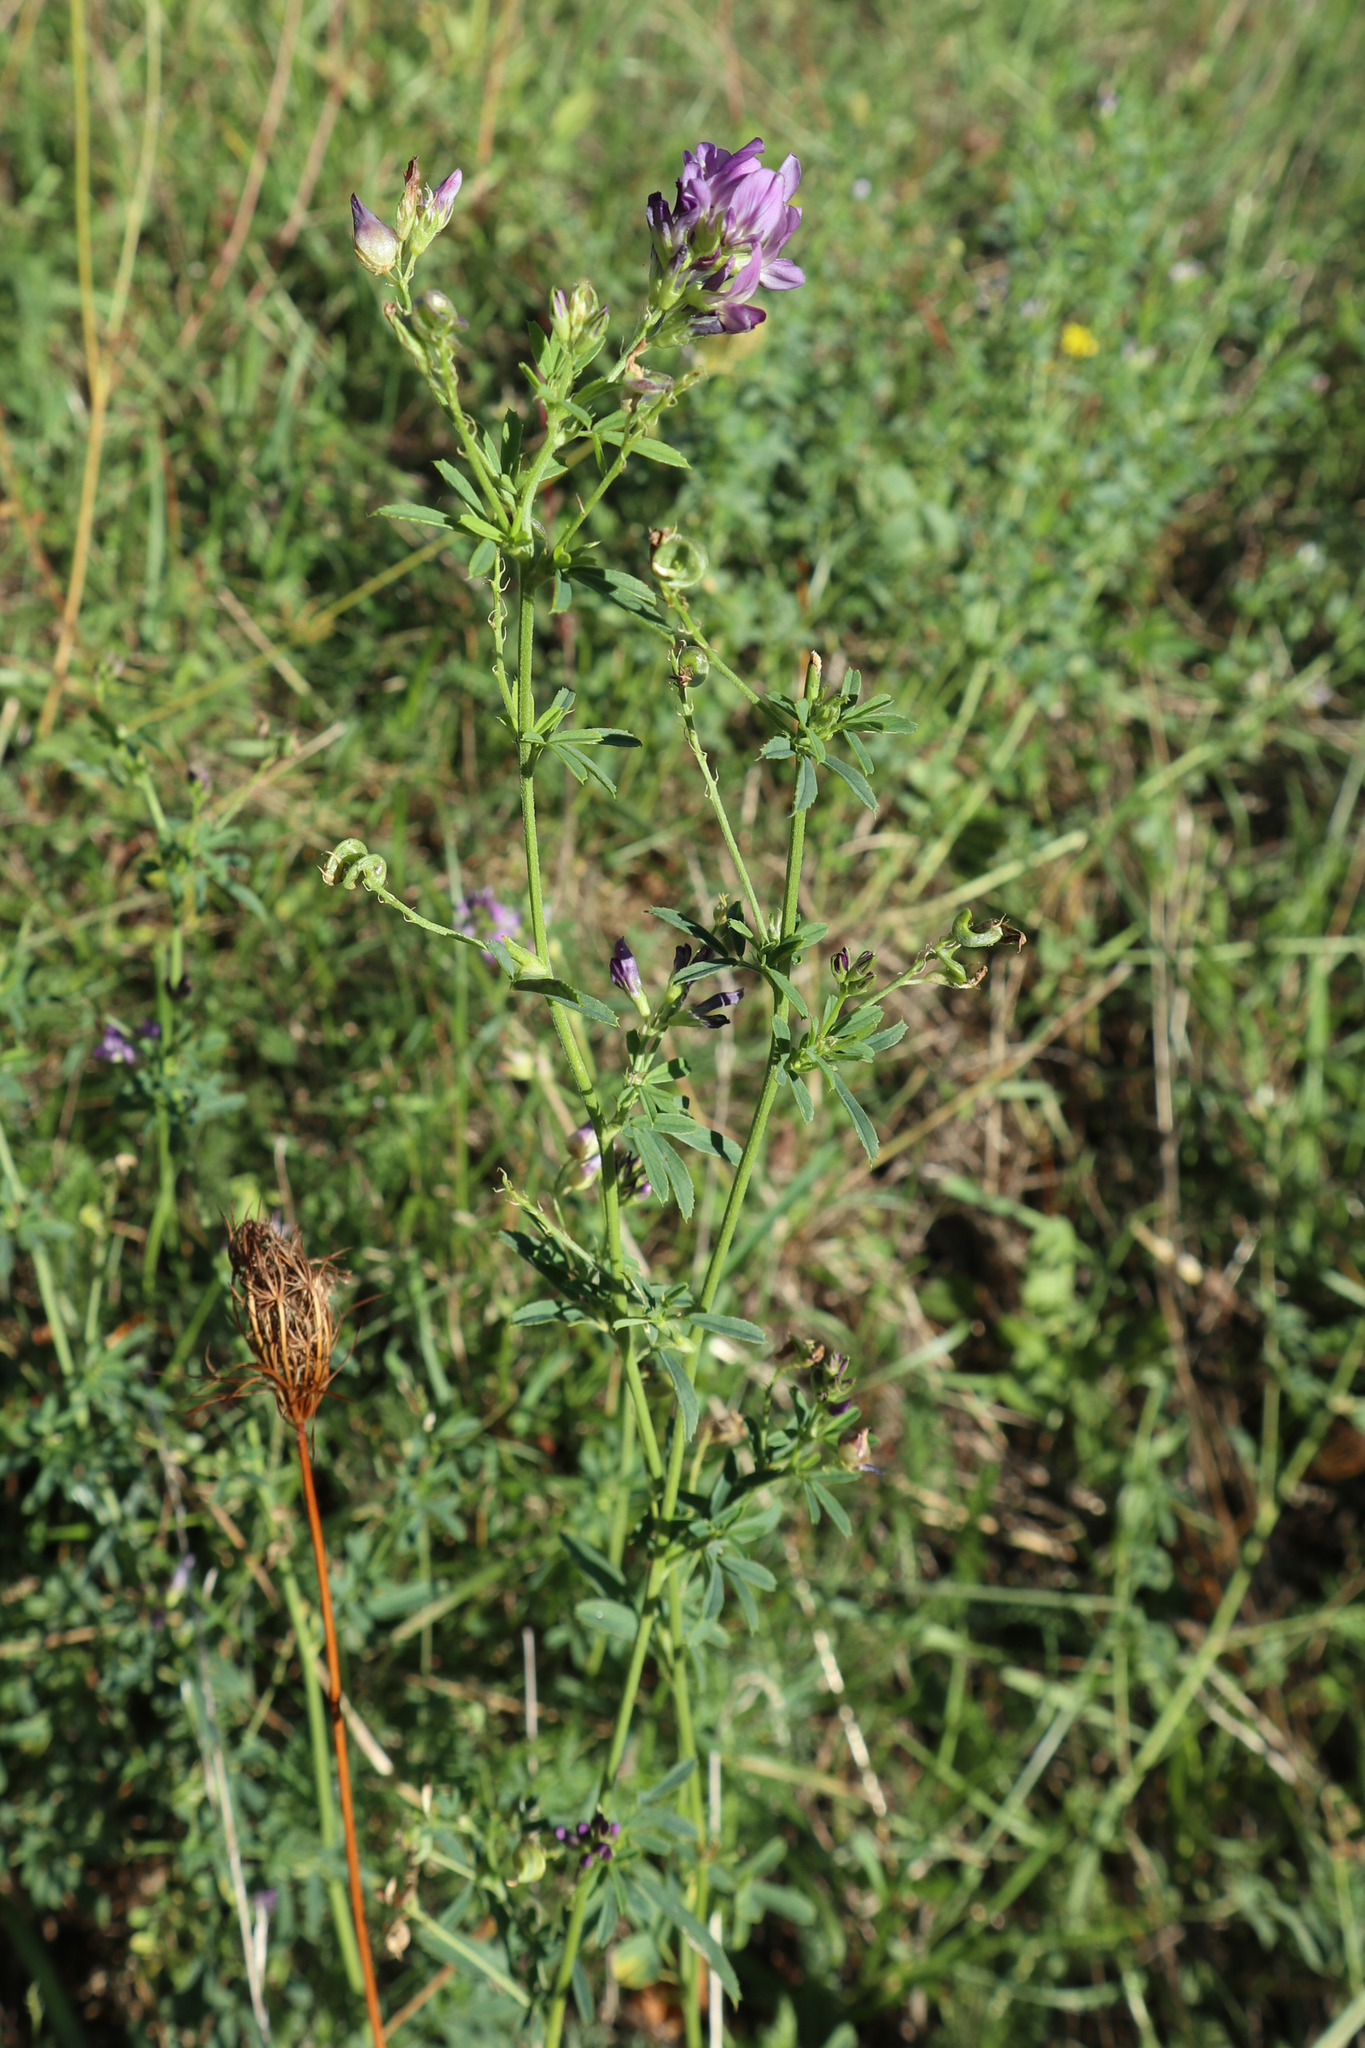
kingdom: Plantae
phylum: Tracheophyta
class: Magnoliopsida
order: Fabales
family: Fabaceae
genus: Medicago
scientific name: Medicago sativa
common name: Alfalfa
